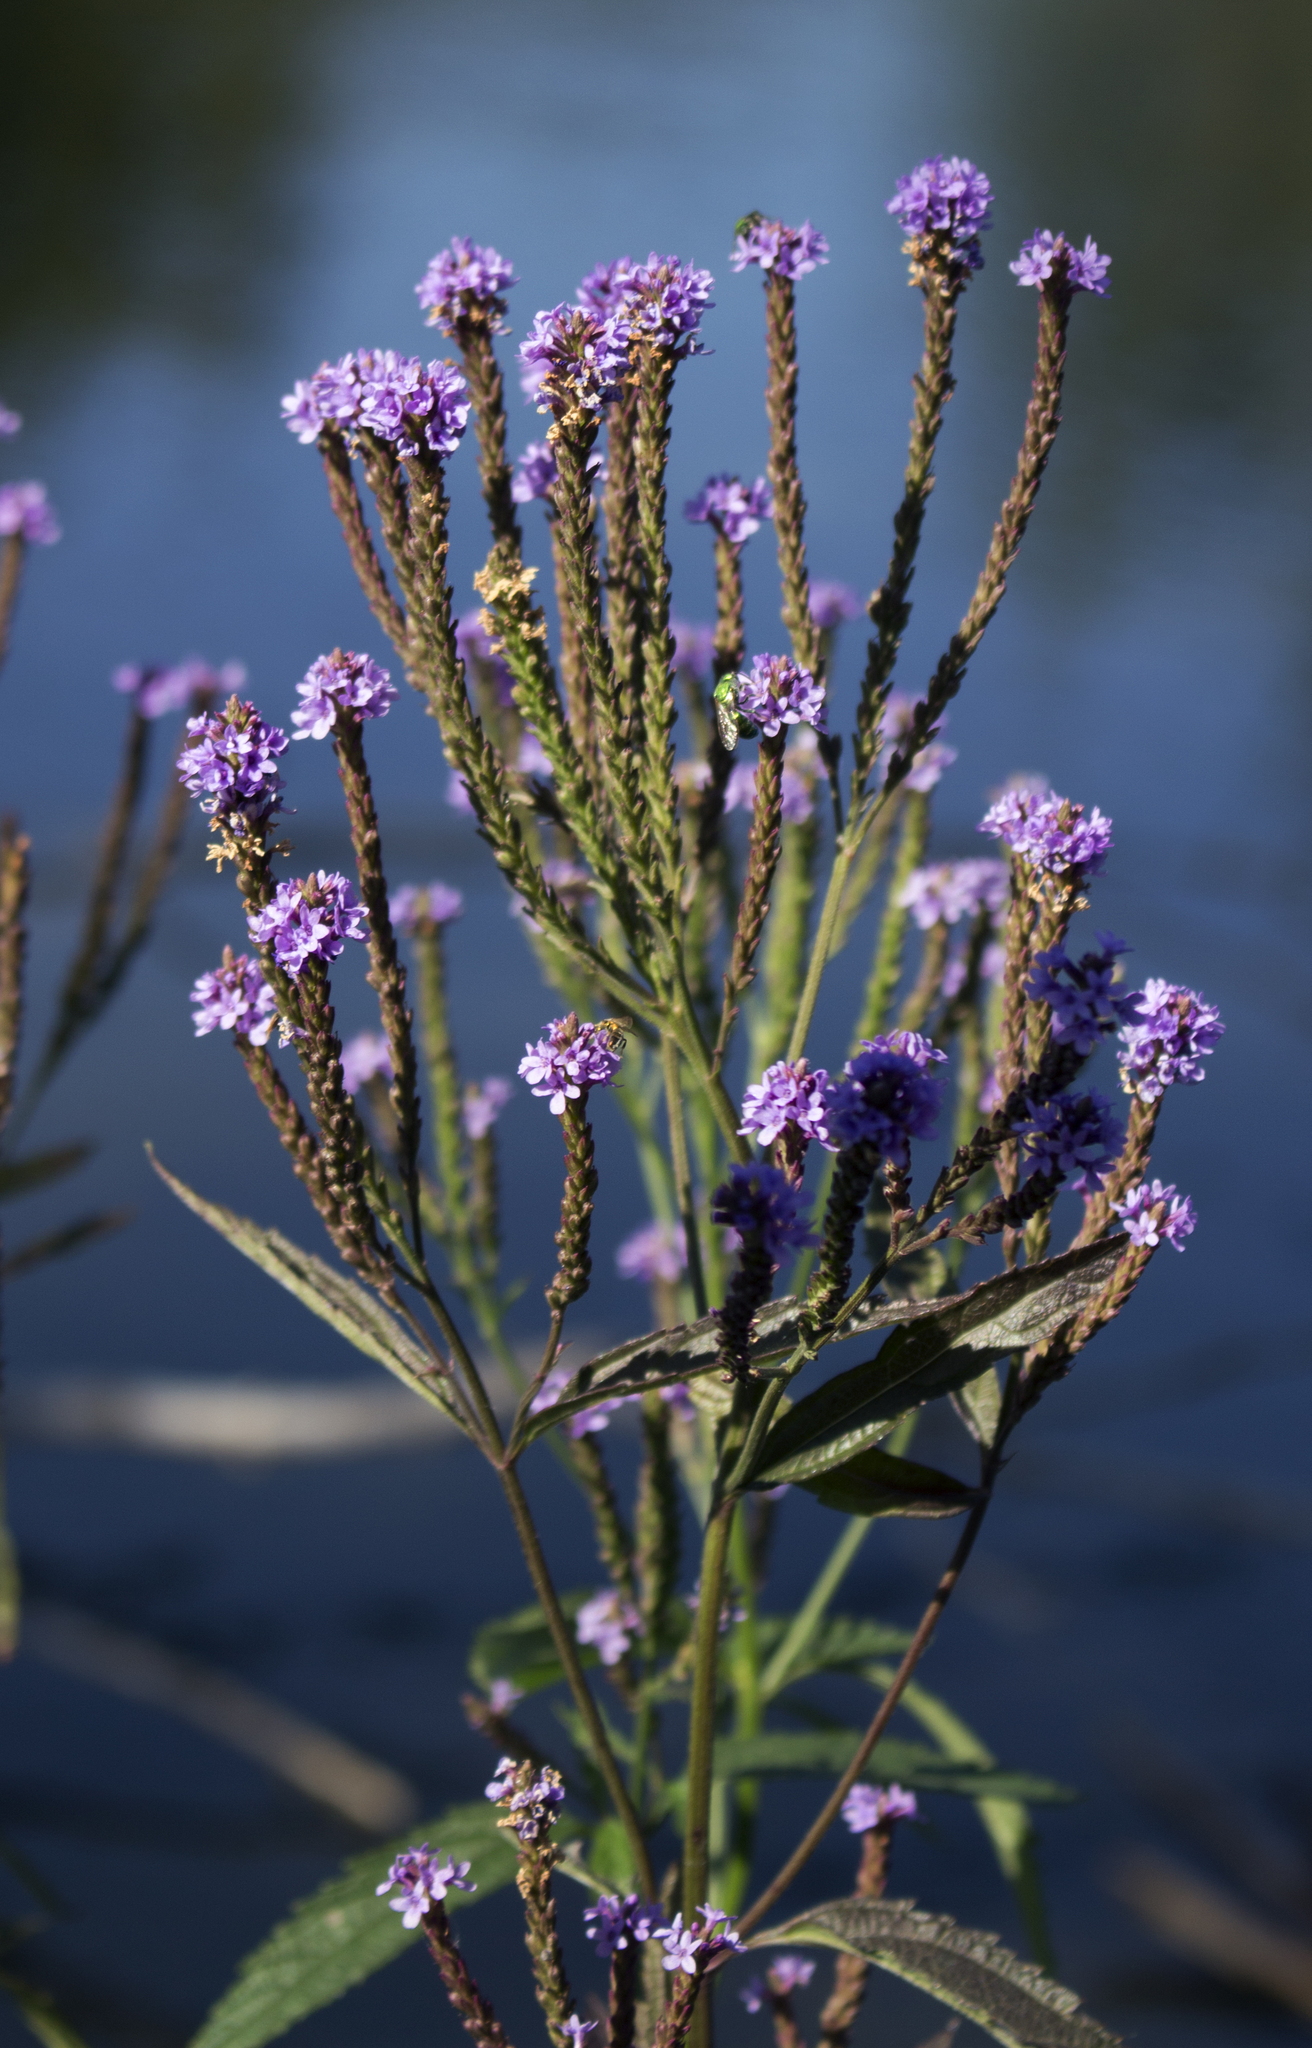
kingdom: Plantae
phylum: Tracheophyta
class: Magnoliopsida
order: Lamiales
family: Verbenaceae
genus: Verbena
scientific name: Verbena hastata
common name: American blue vervain
